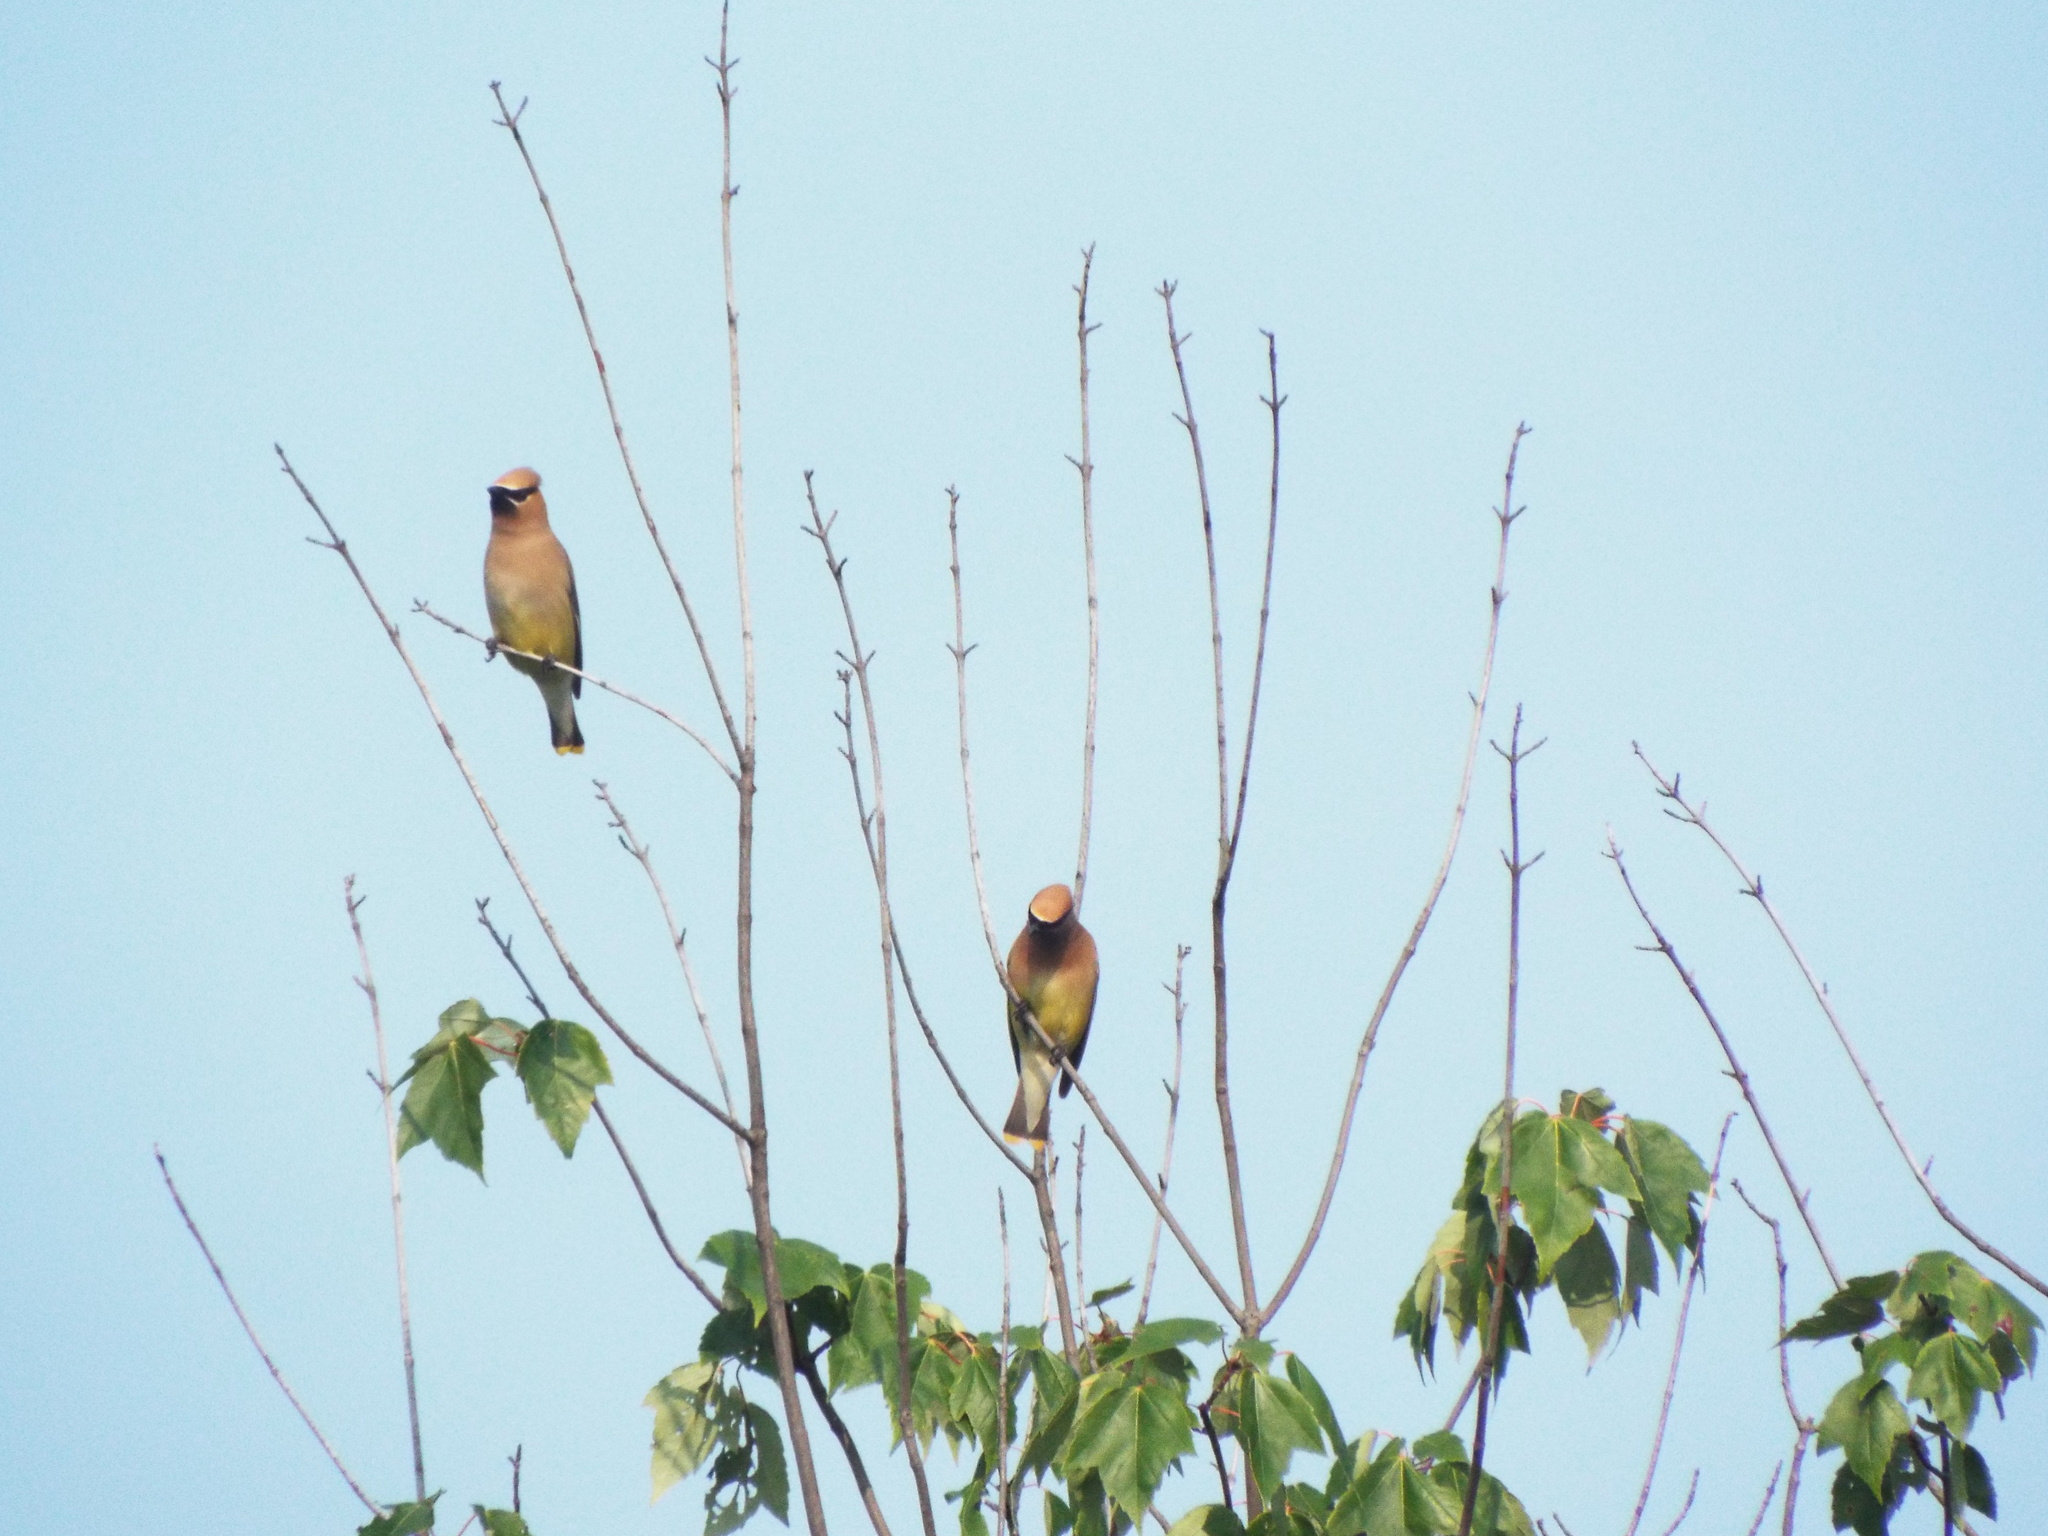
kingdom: Animalia
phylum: Chordata
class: Aves
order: Passeriformes
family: Bombycillidae
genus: Bombycilla
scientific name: Bombycilla cedrorum
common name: Cedar waxwing
